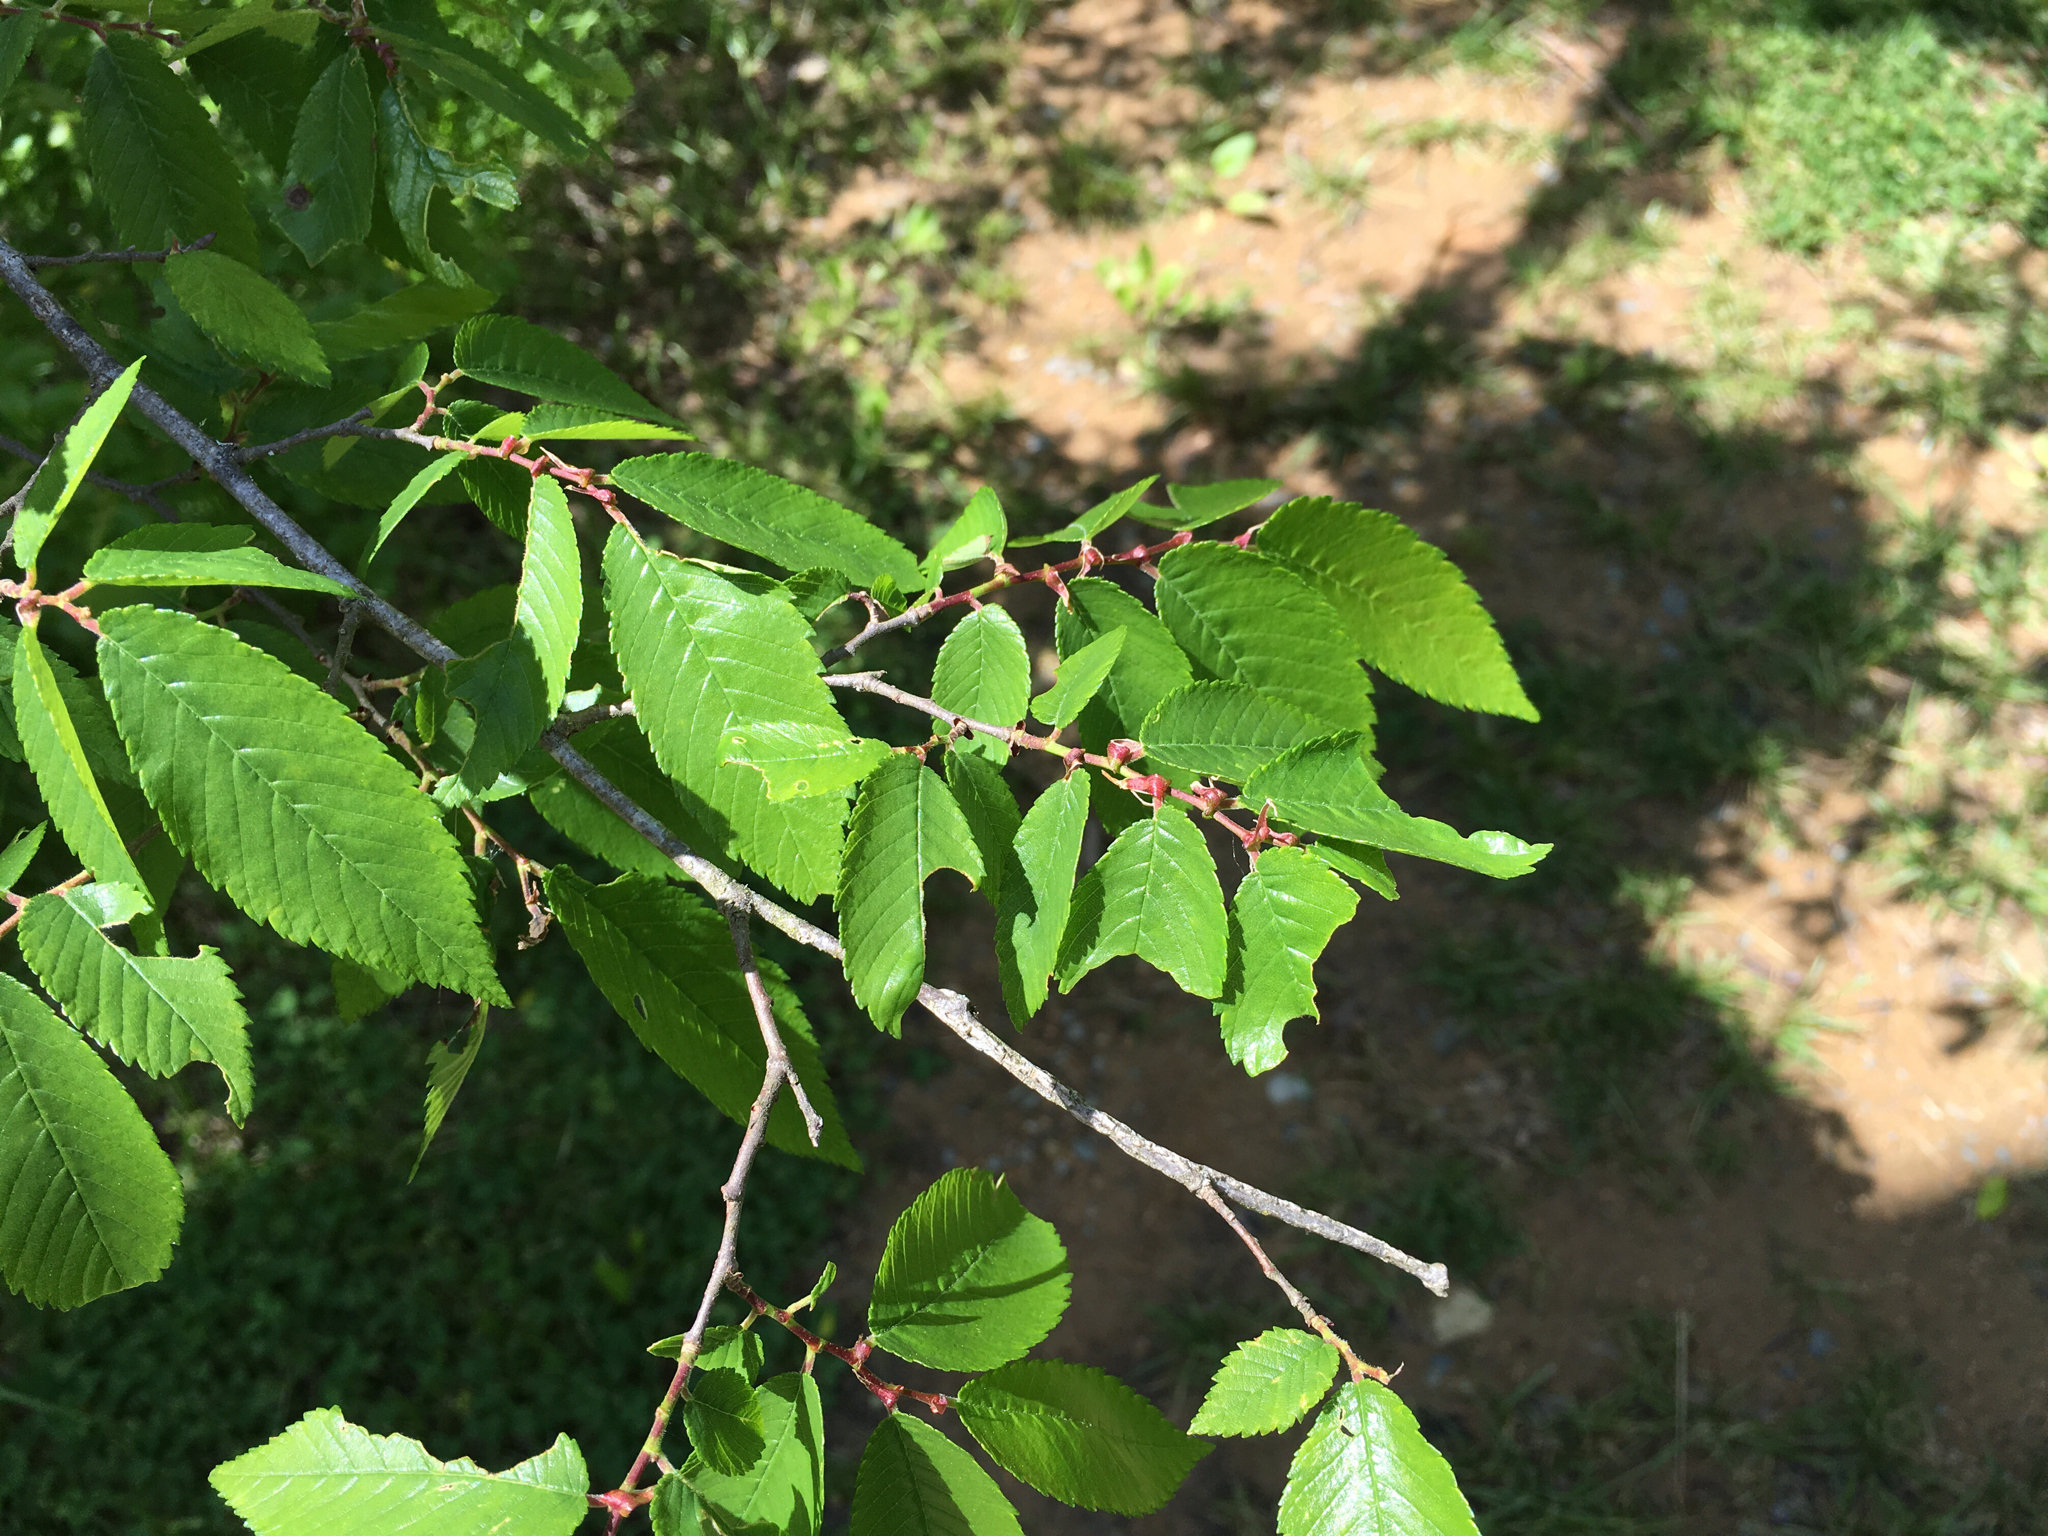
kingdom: Plantae
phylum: Tracheophyta
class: Magnoliopsida
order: Rosales
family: Ulmaceae
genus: Ulmus
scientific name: Ulmus alata
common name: Winged elm
